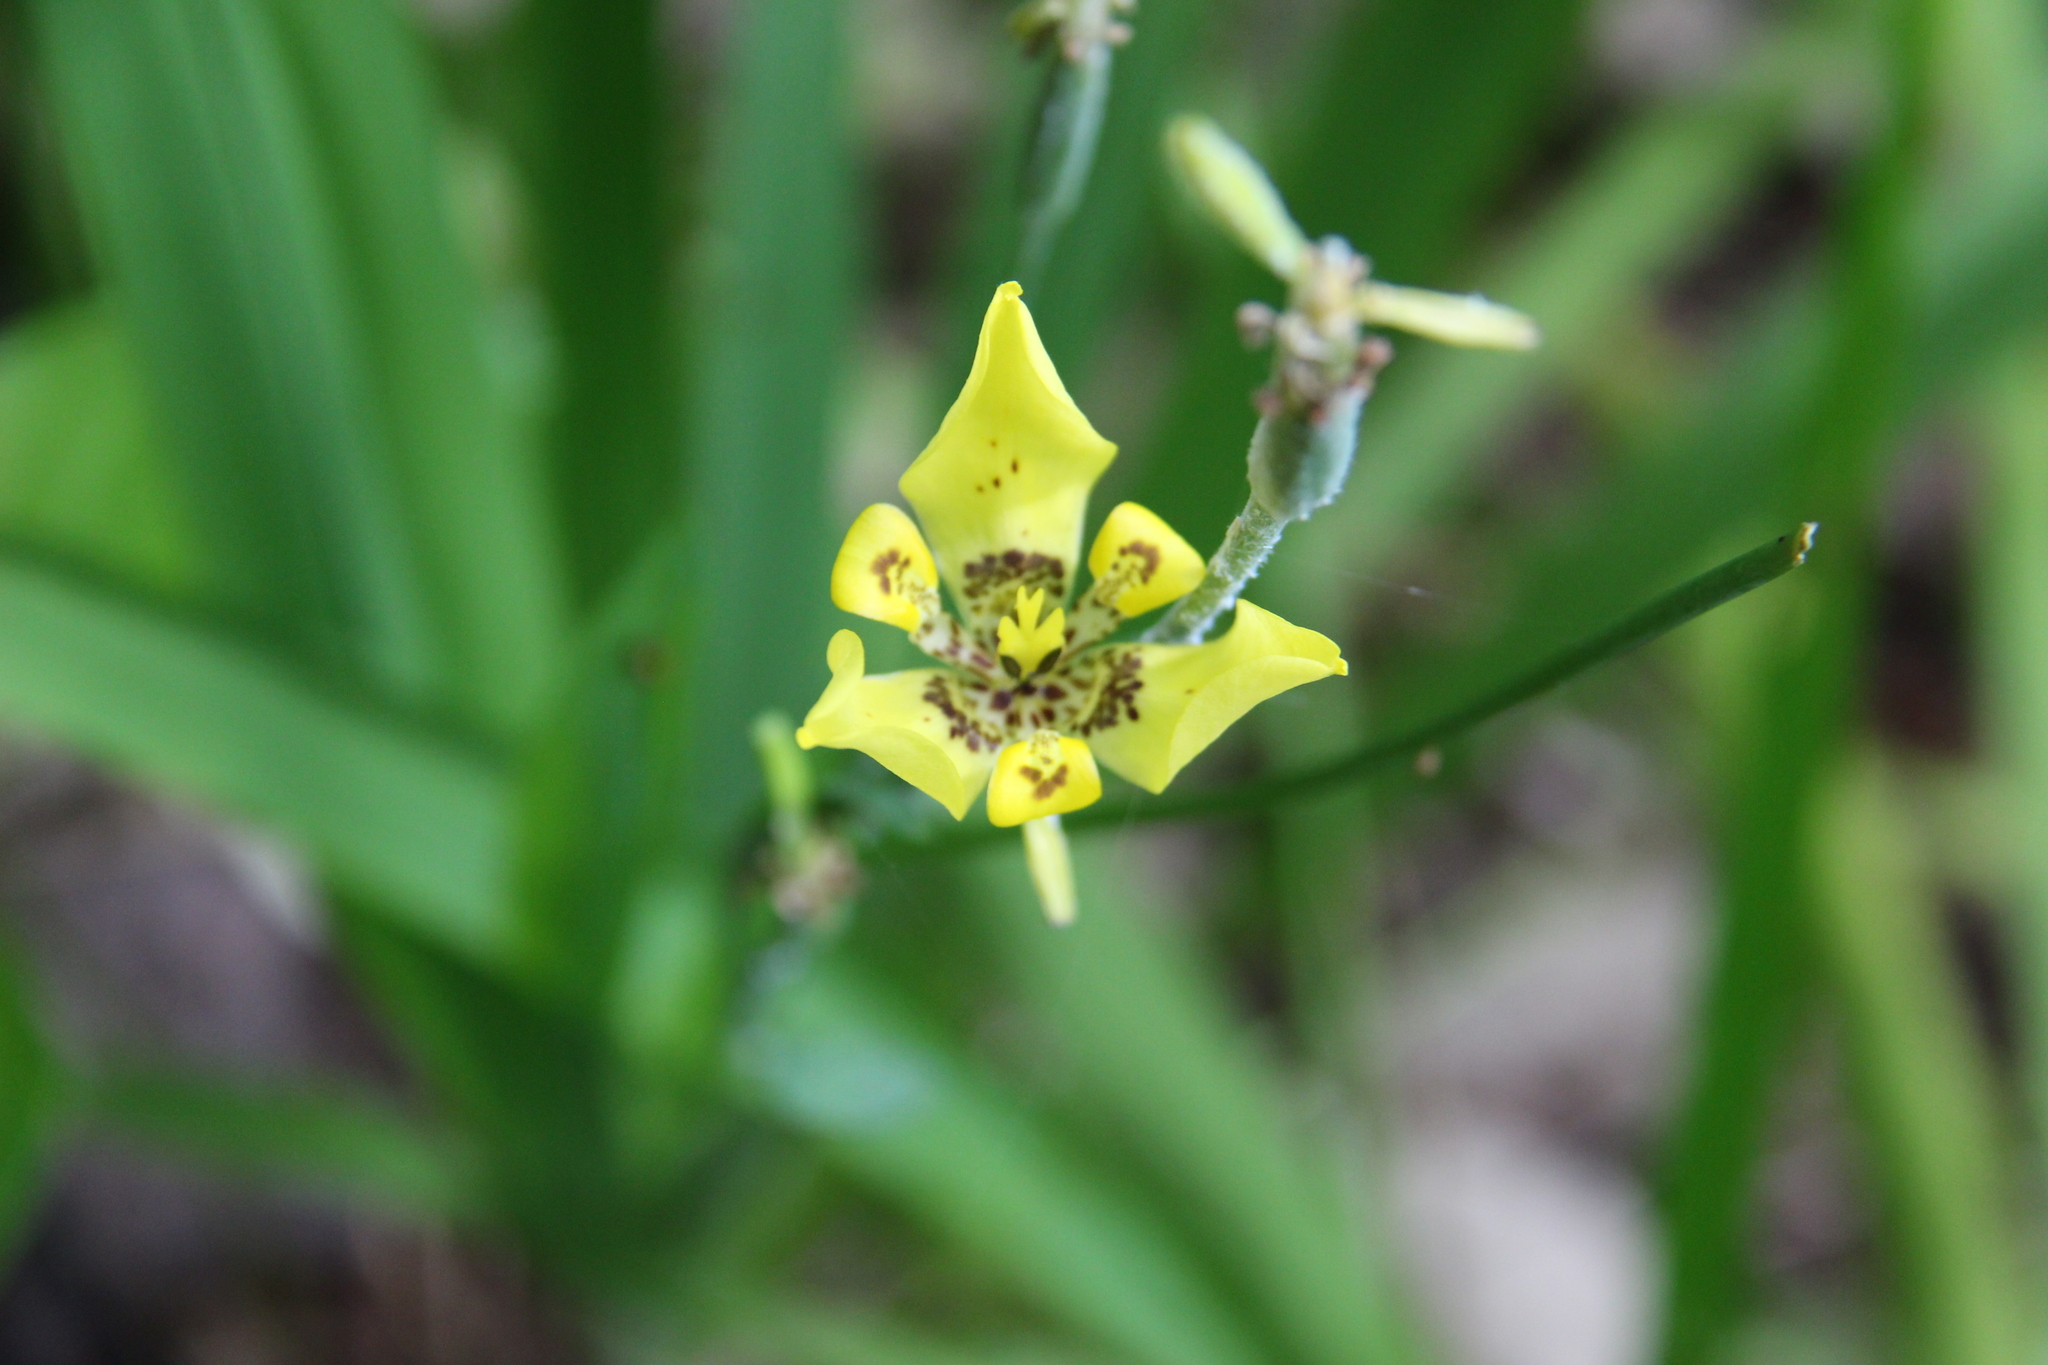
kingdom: Plantae
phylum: Tracheophyta
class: Liliopsida
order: Asparagales
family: Iridaceae
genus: Trimezia
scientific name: Trimezia steyermarkii
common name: Trimezia
